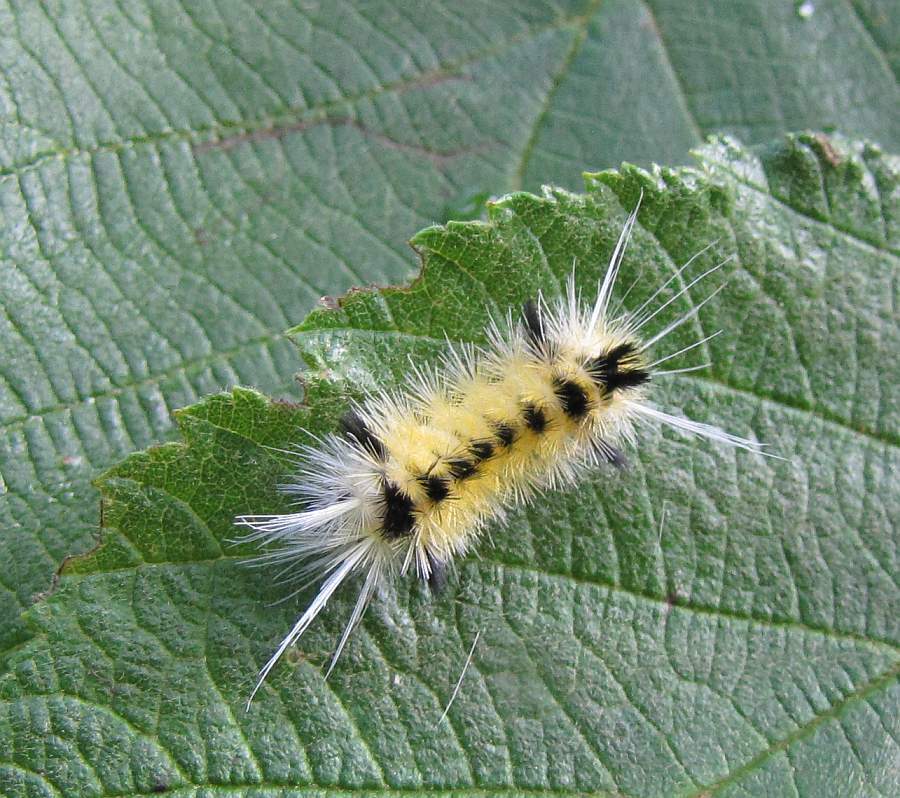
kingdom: Animalia
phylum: Arthropoda
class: Insecta
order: Lepidoptera
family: Erebidae
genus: Lophocampa
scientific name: Lophocampa maculata
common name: Spotted tussock moth
